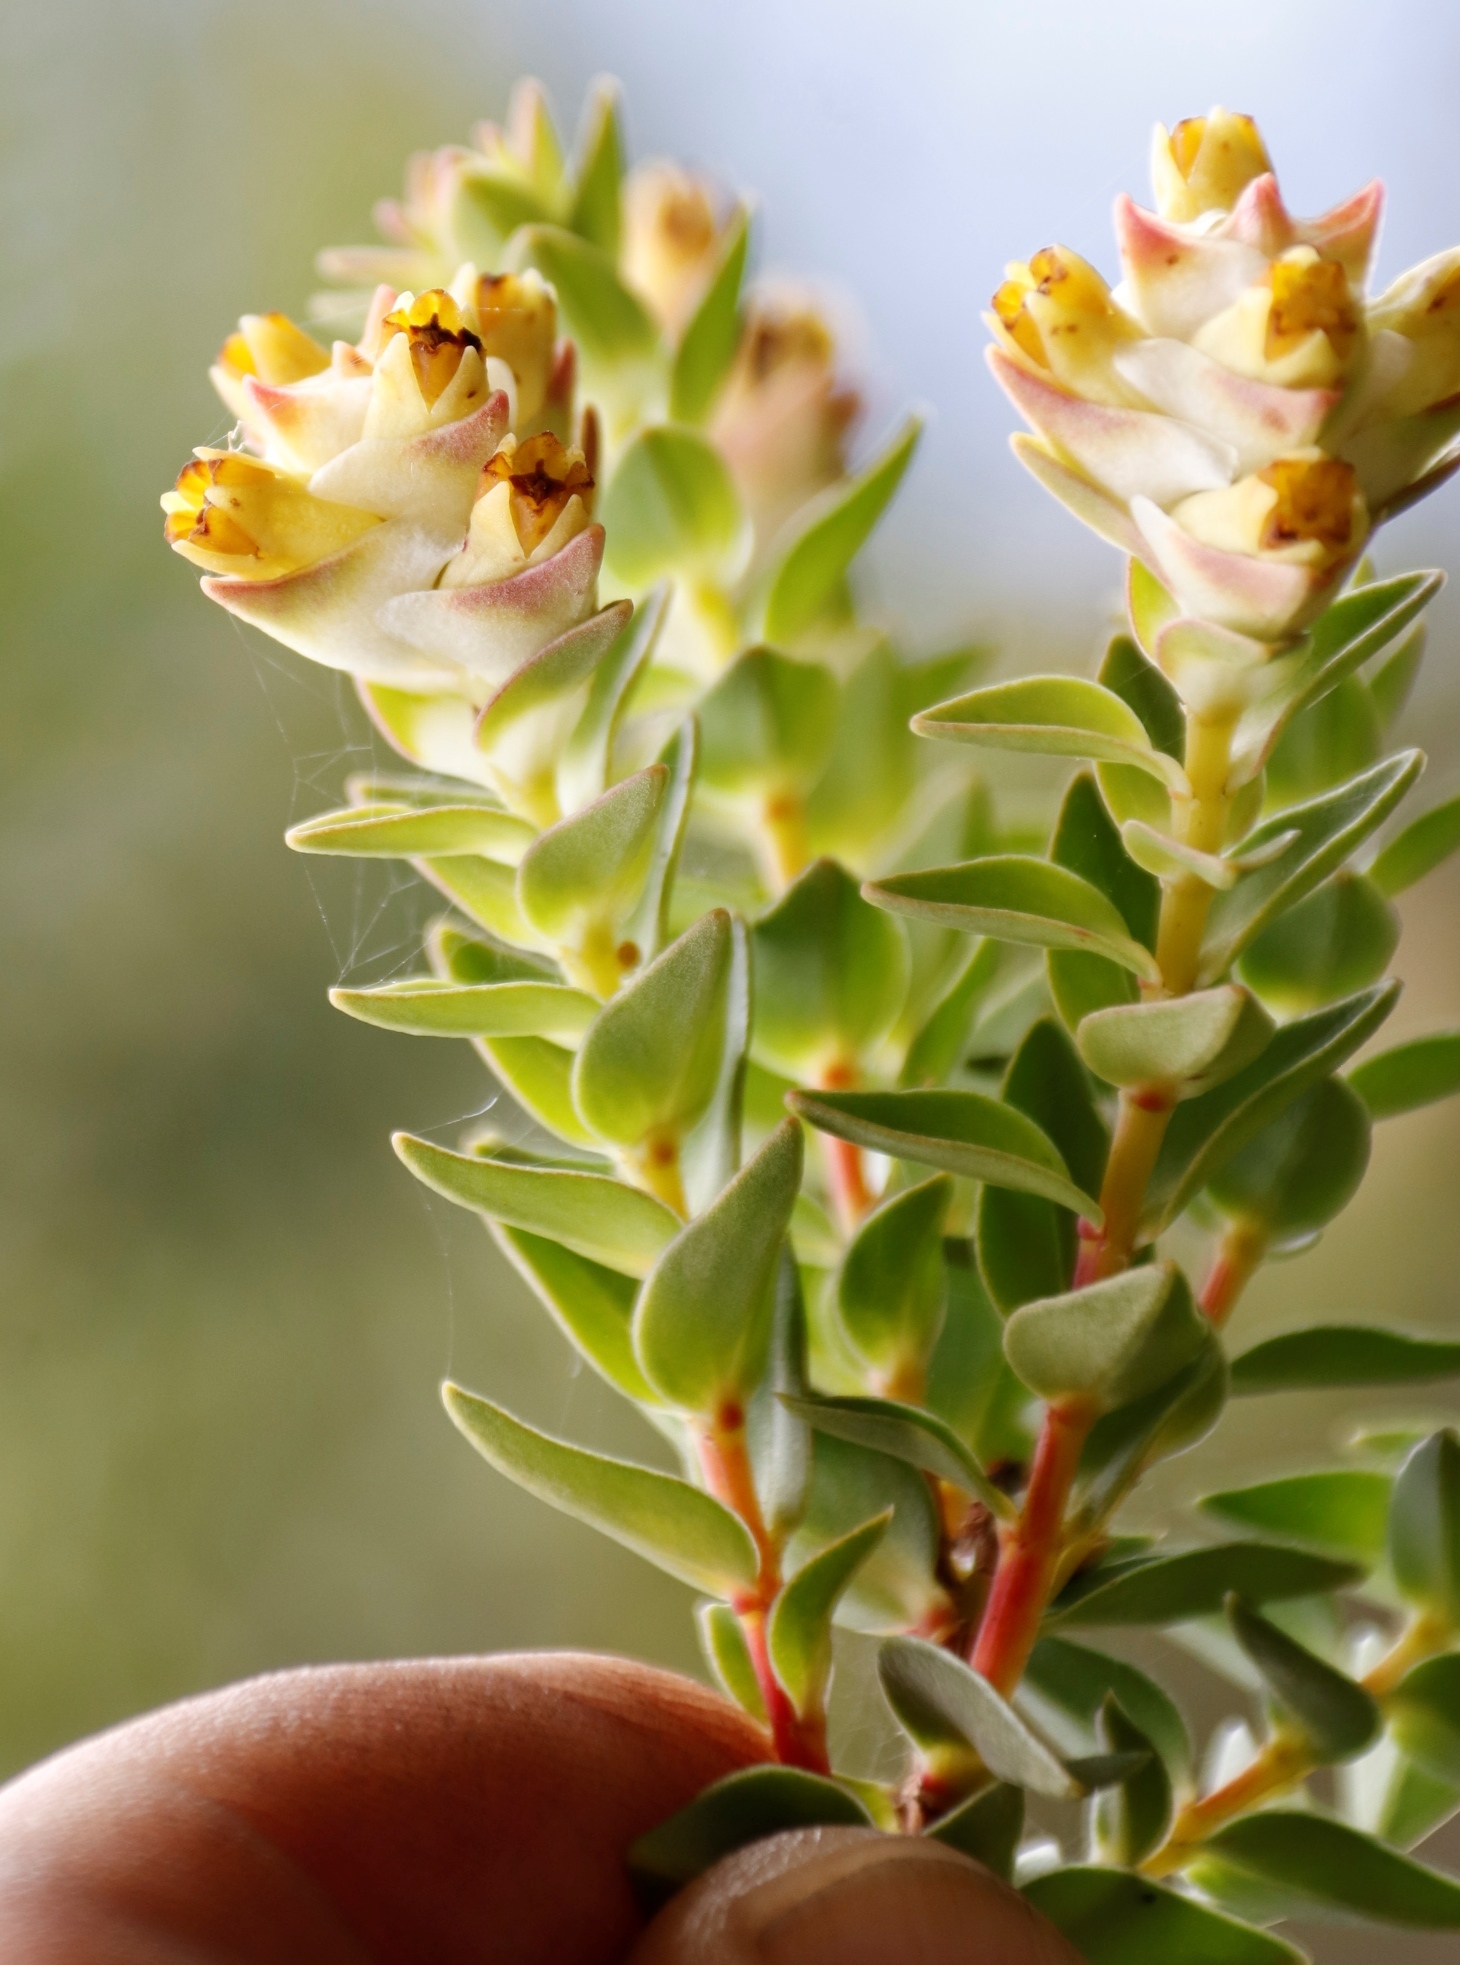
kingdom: Plantae
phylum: Tracheophyta
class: Magnoliopsida
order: Myrtales
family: Penaeaceae
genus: Penaea
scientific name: Penaea cneorum
